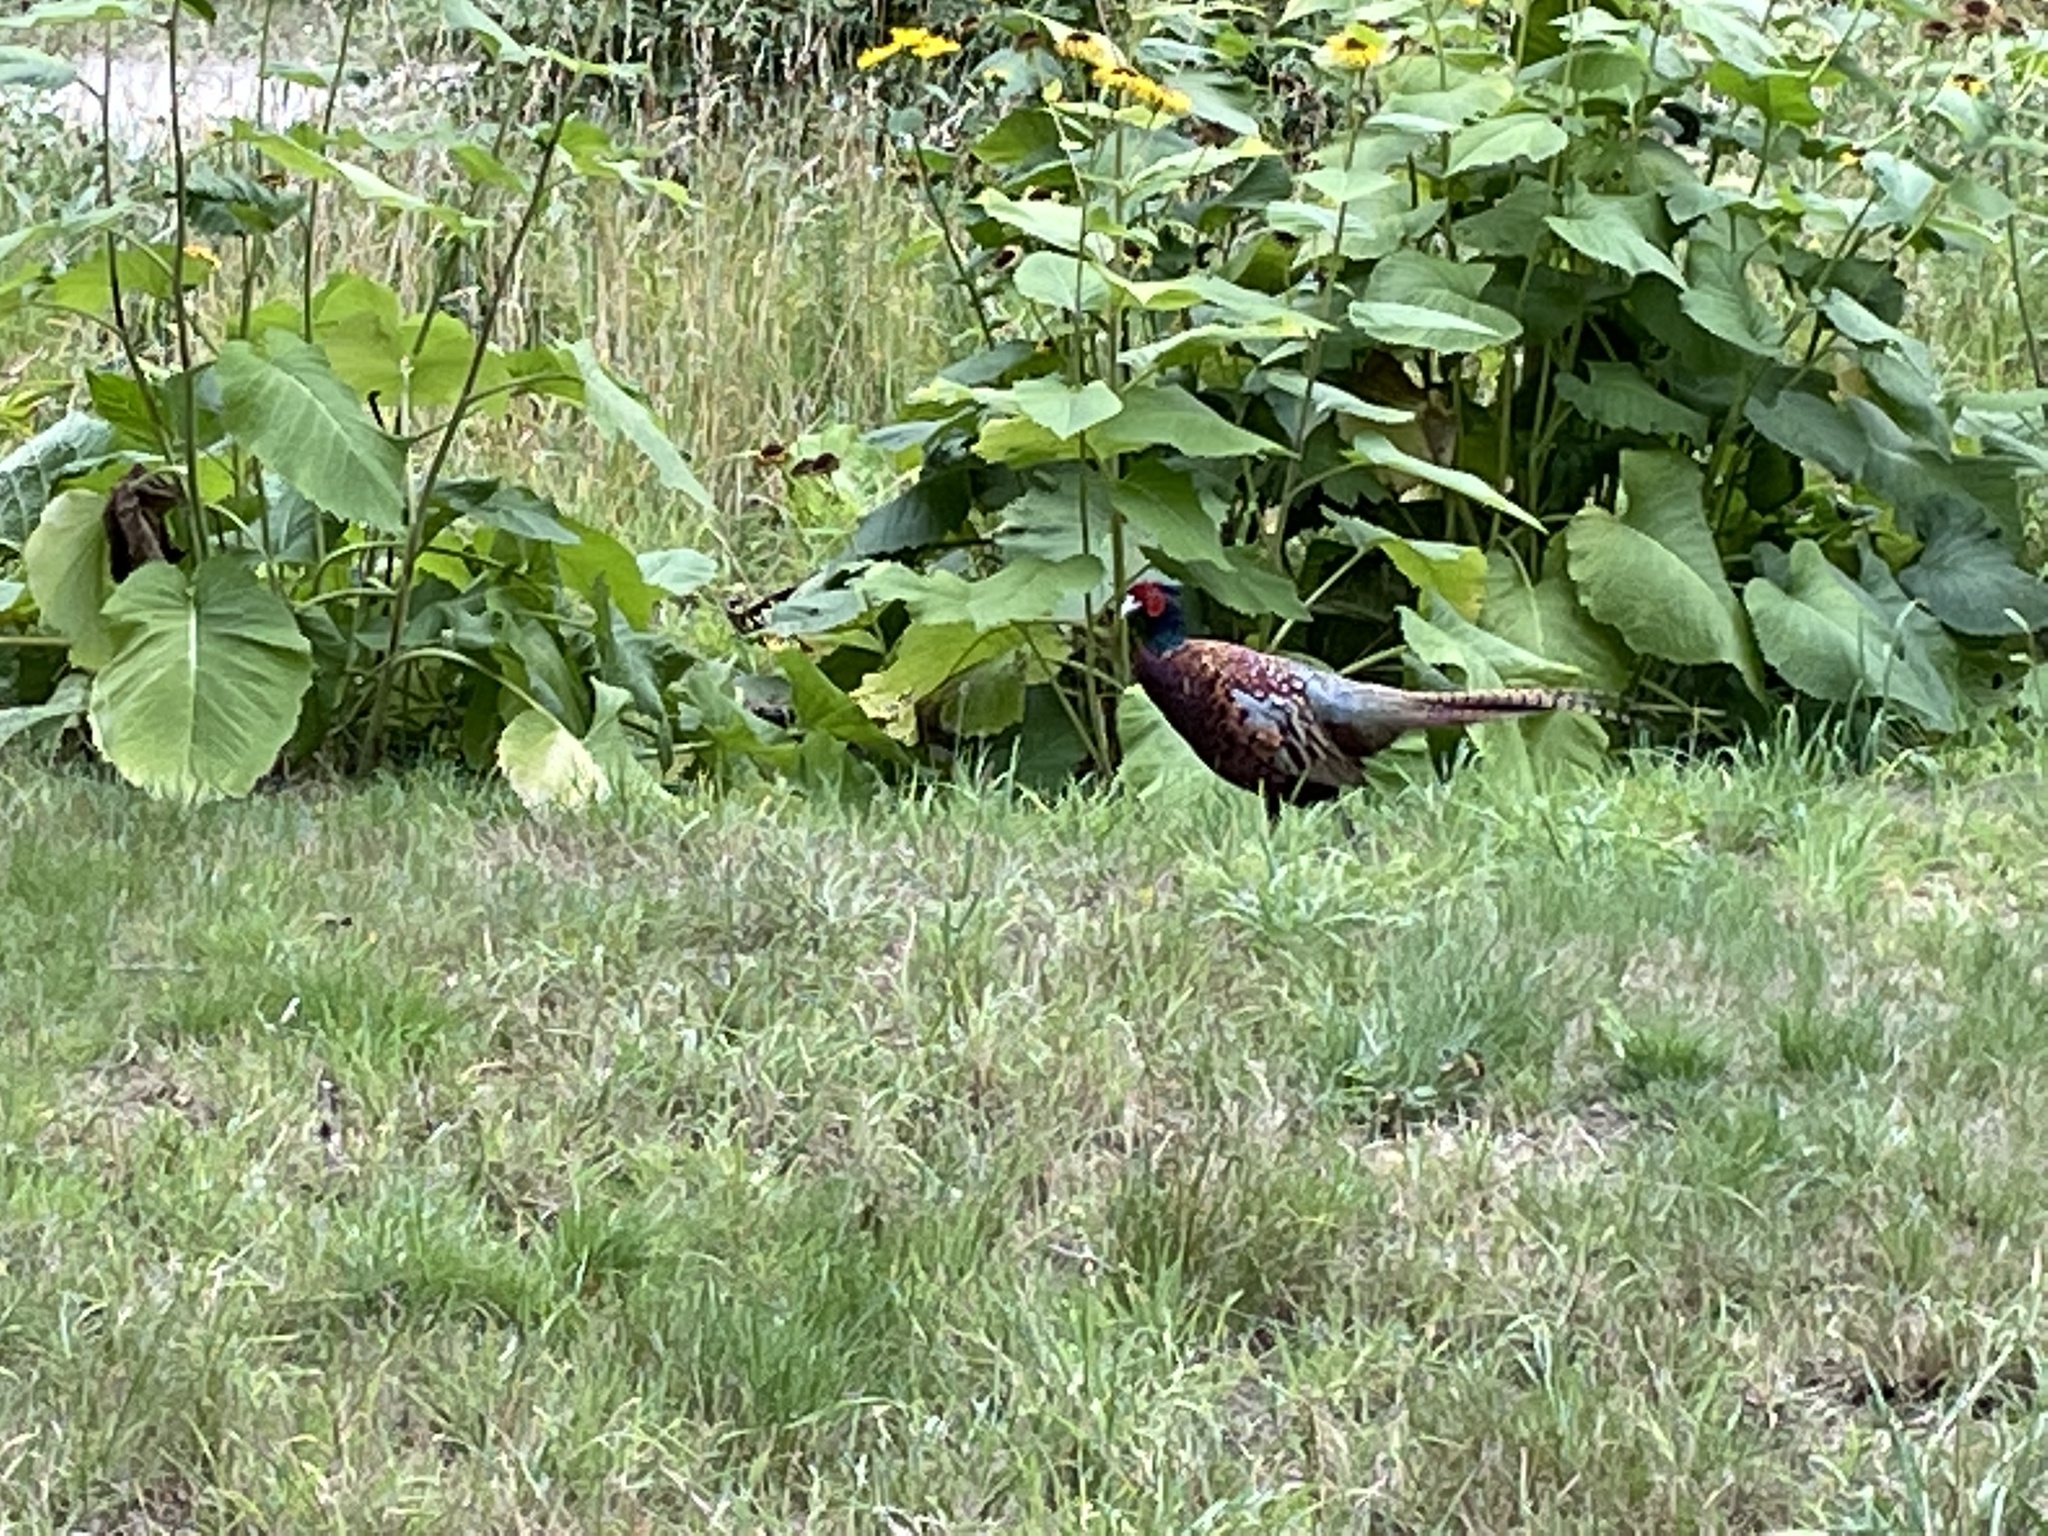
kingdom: Animalia
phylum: Chordata
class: Aves
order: Galliformes
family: Phasianidae
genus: Phasianus
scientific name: Phasianus colchicus
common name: Common pheasant
